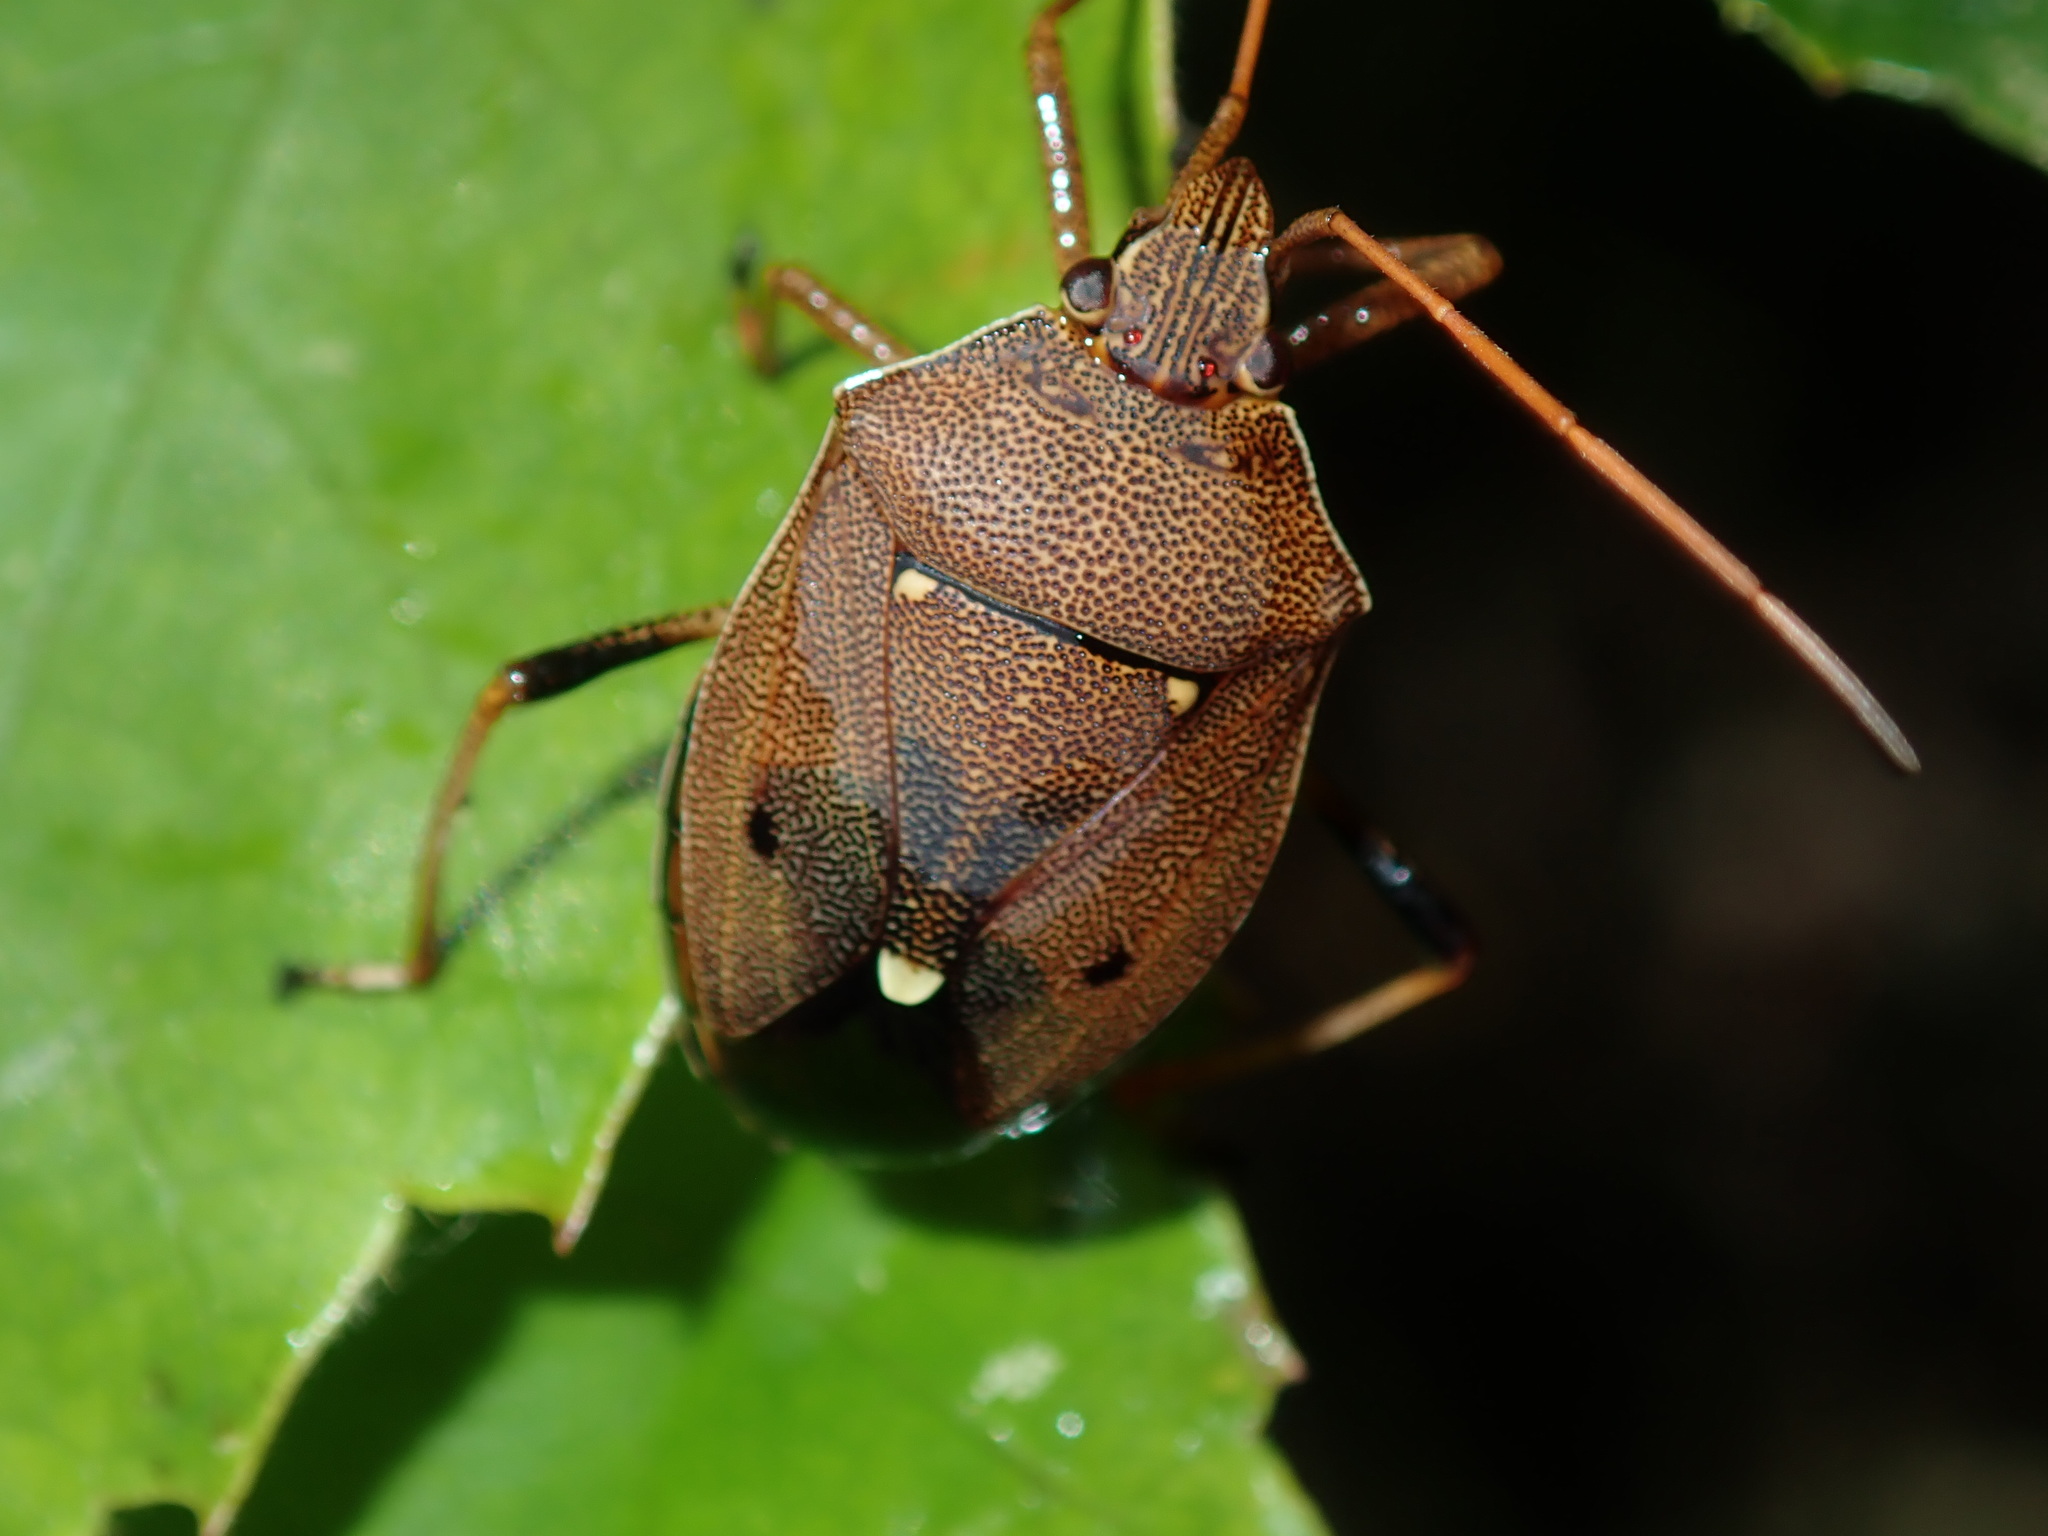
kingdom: Animalia
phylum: Arthropoda
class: Insecta
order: Hemiptera
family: Pentatomidae
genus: Poecilometis
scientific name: Poecilometis
